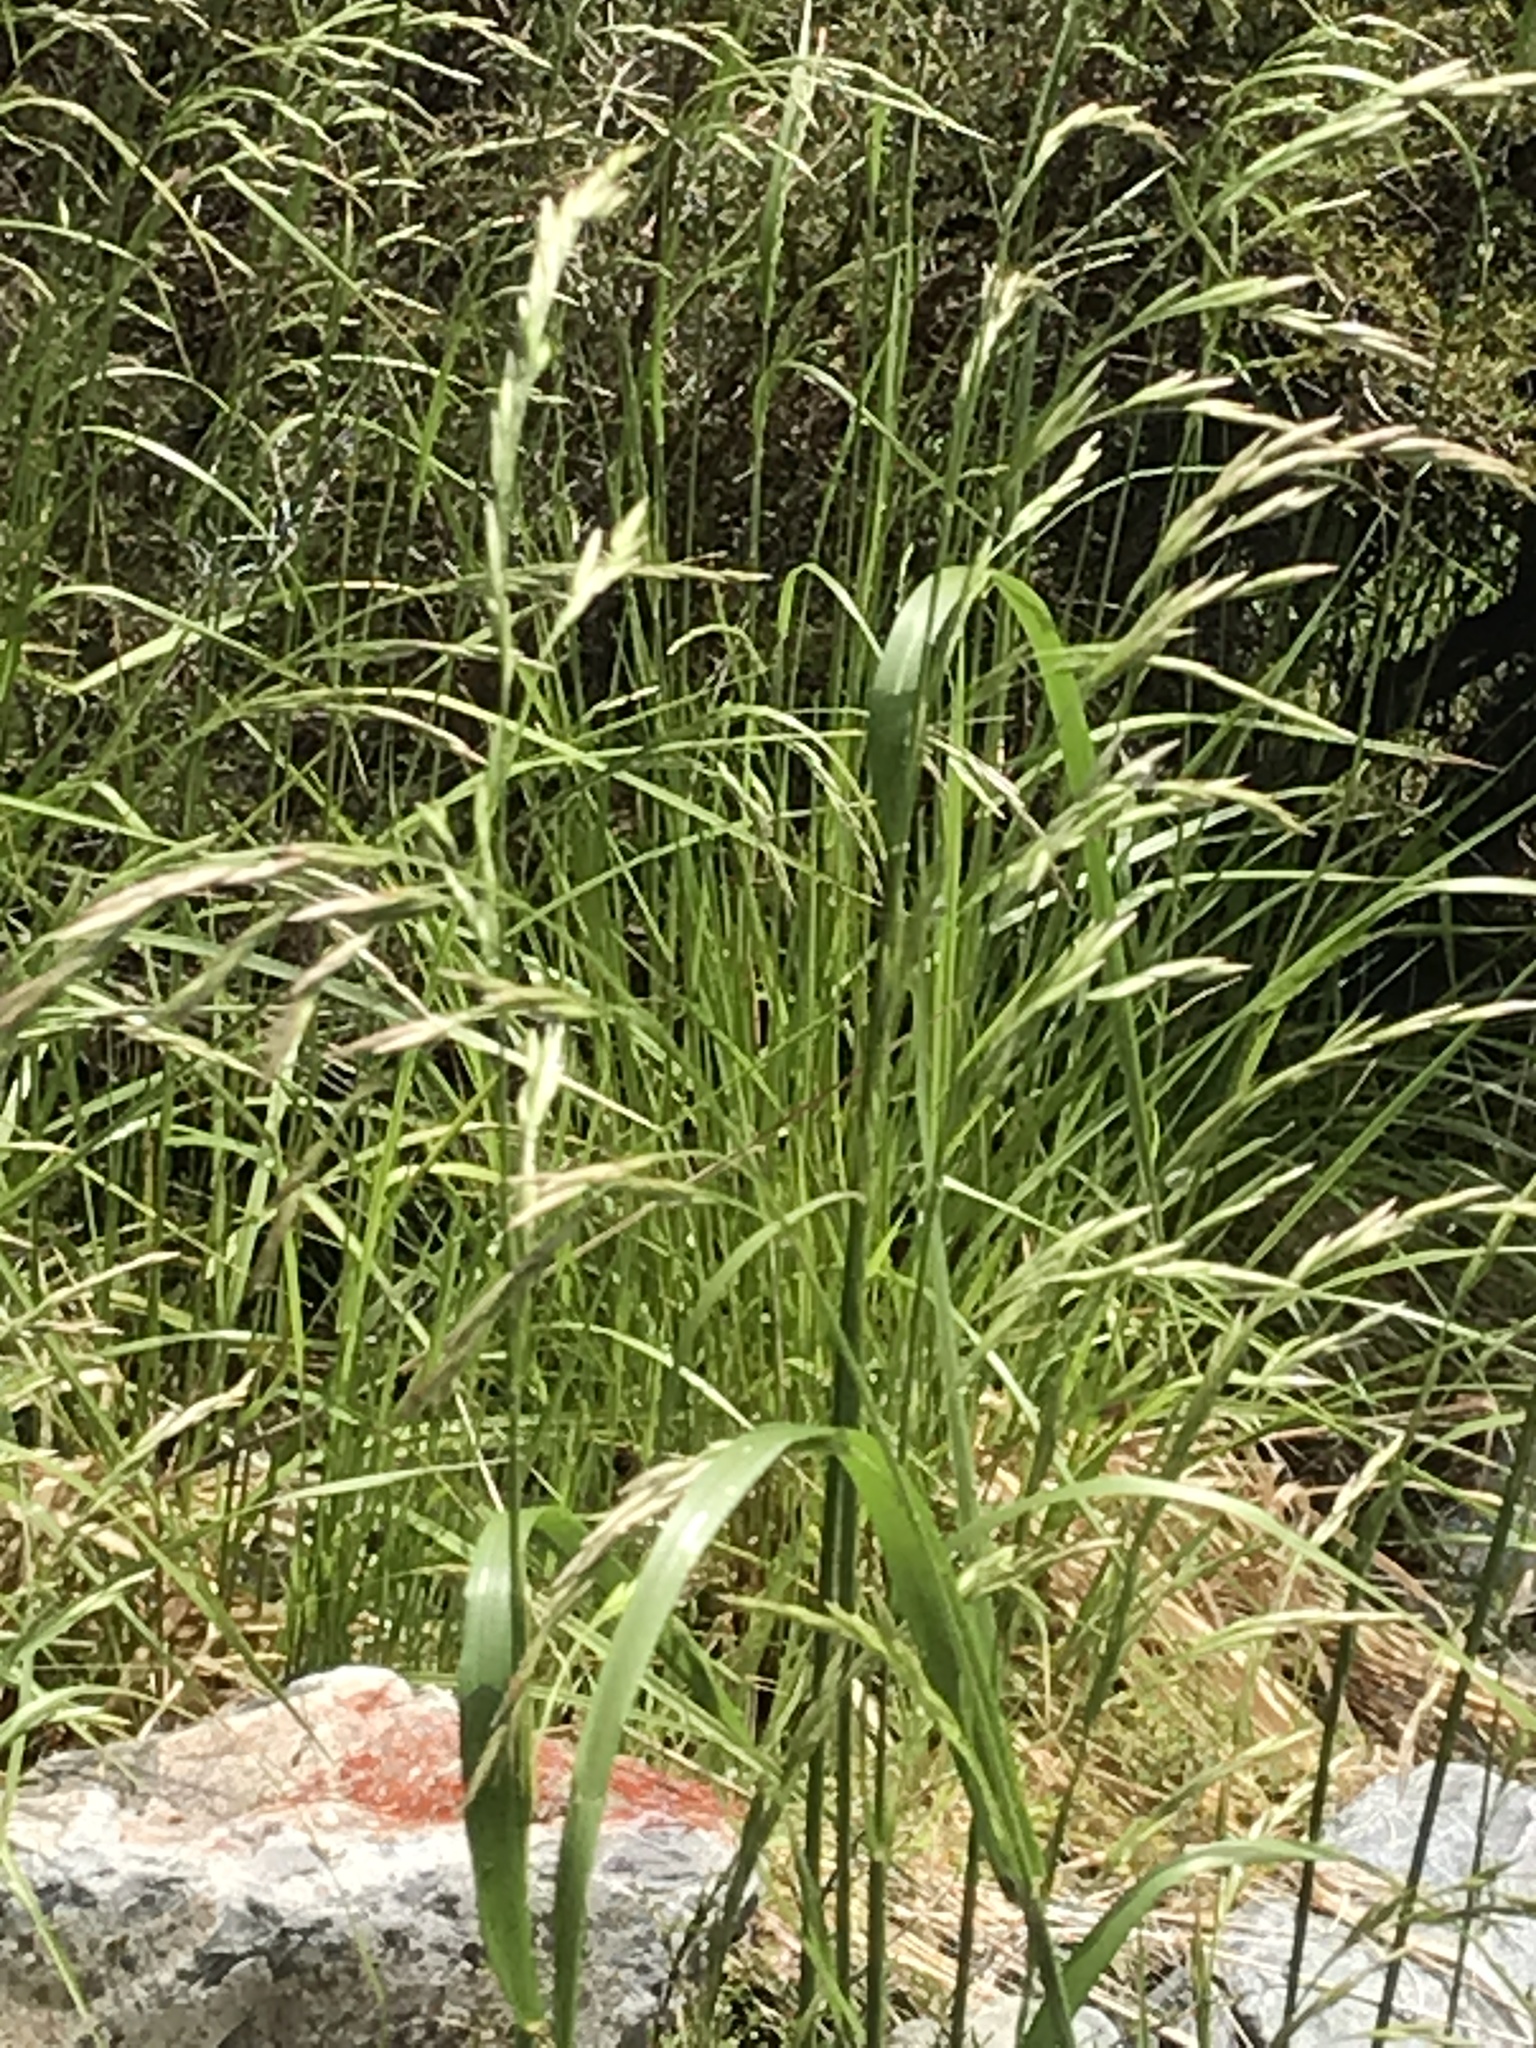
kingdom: Plantae
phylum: Tracheophyta
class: Liliopsida
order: Poales
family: Poaceae
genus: Lolium
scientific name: Lolium arundinaceum
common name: Reed fescue
